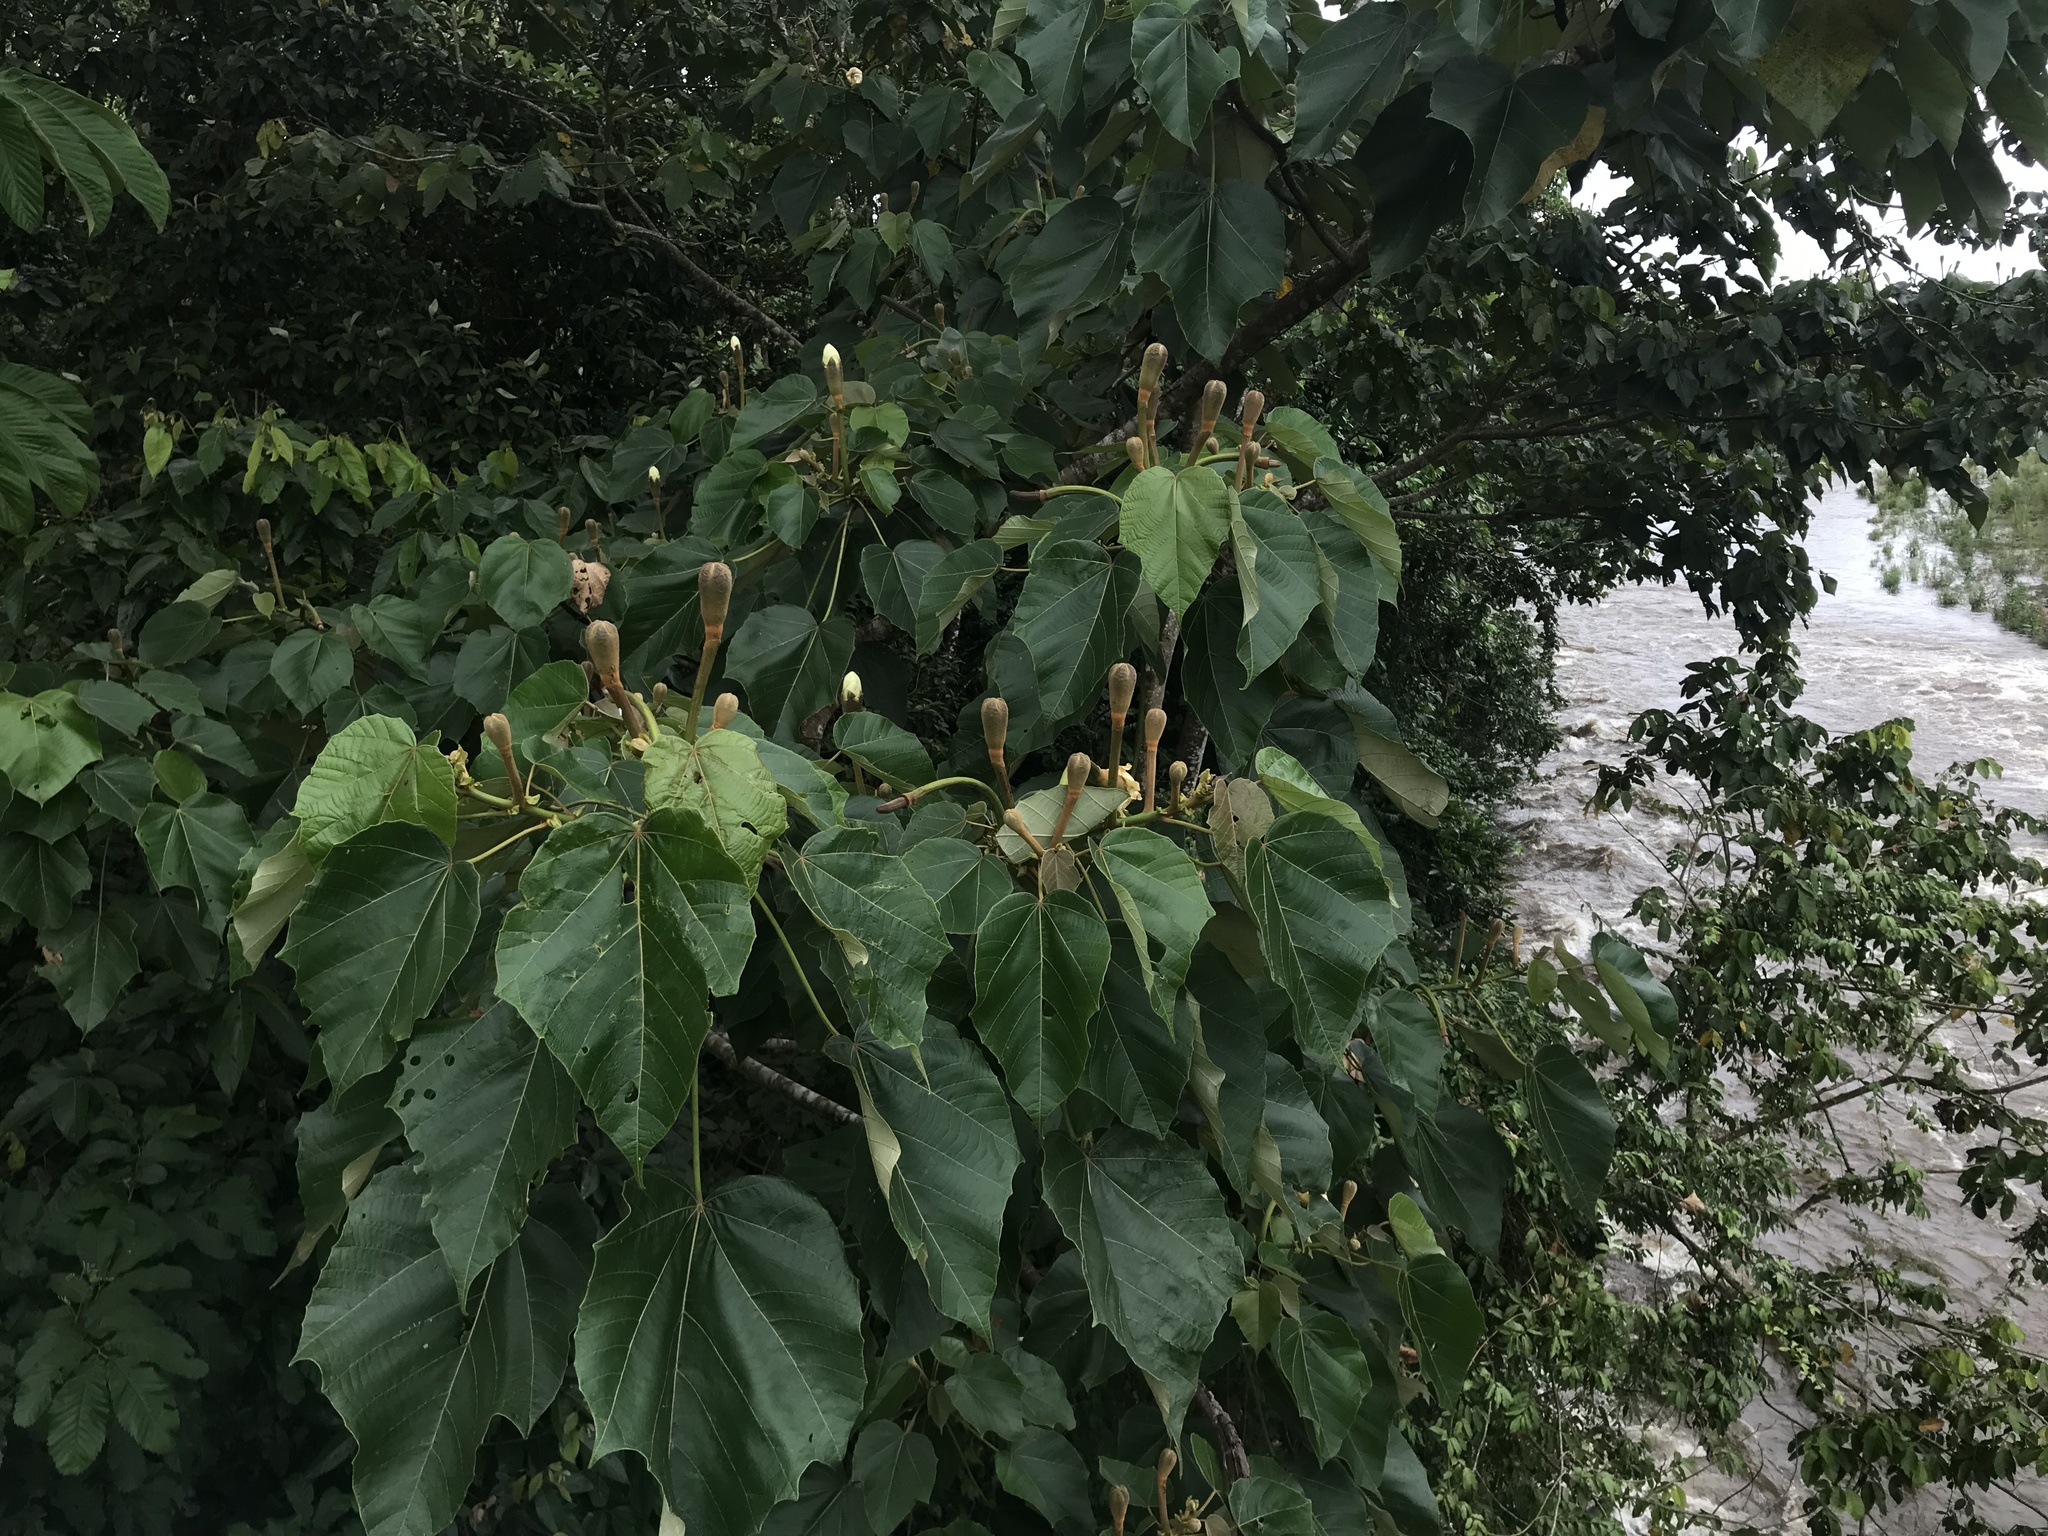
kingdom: Plantae
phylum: Tracheophyta
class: Magnoliopsida
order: Malvales
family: Malvaceae
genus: Ochroma
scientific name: Ochroma pyramidale
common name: Balsa
